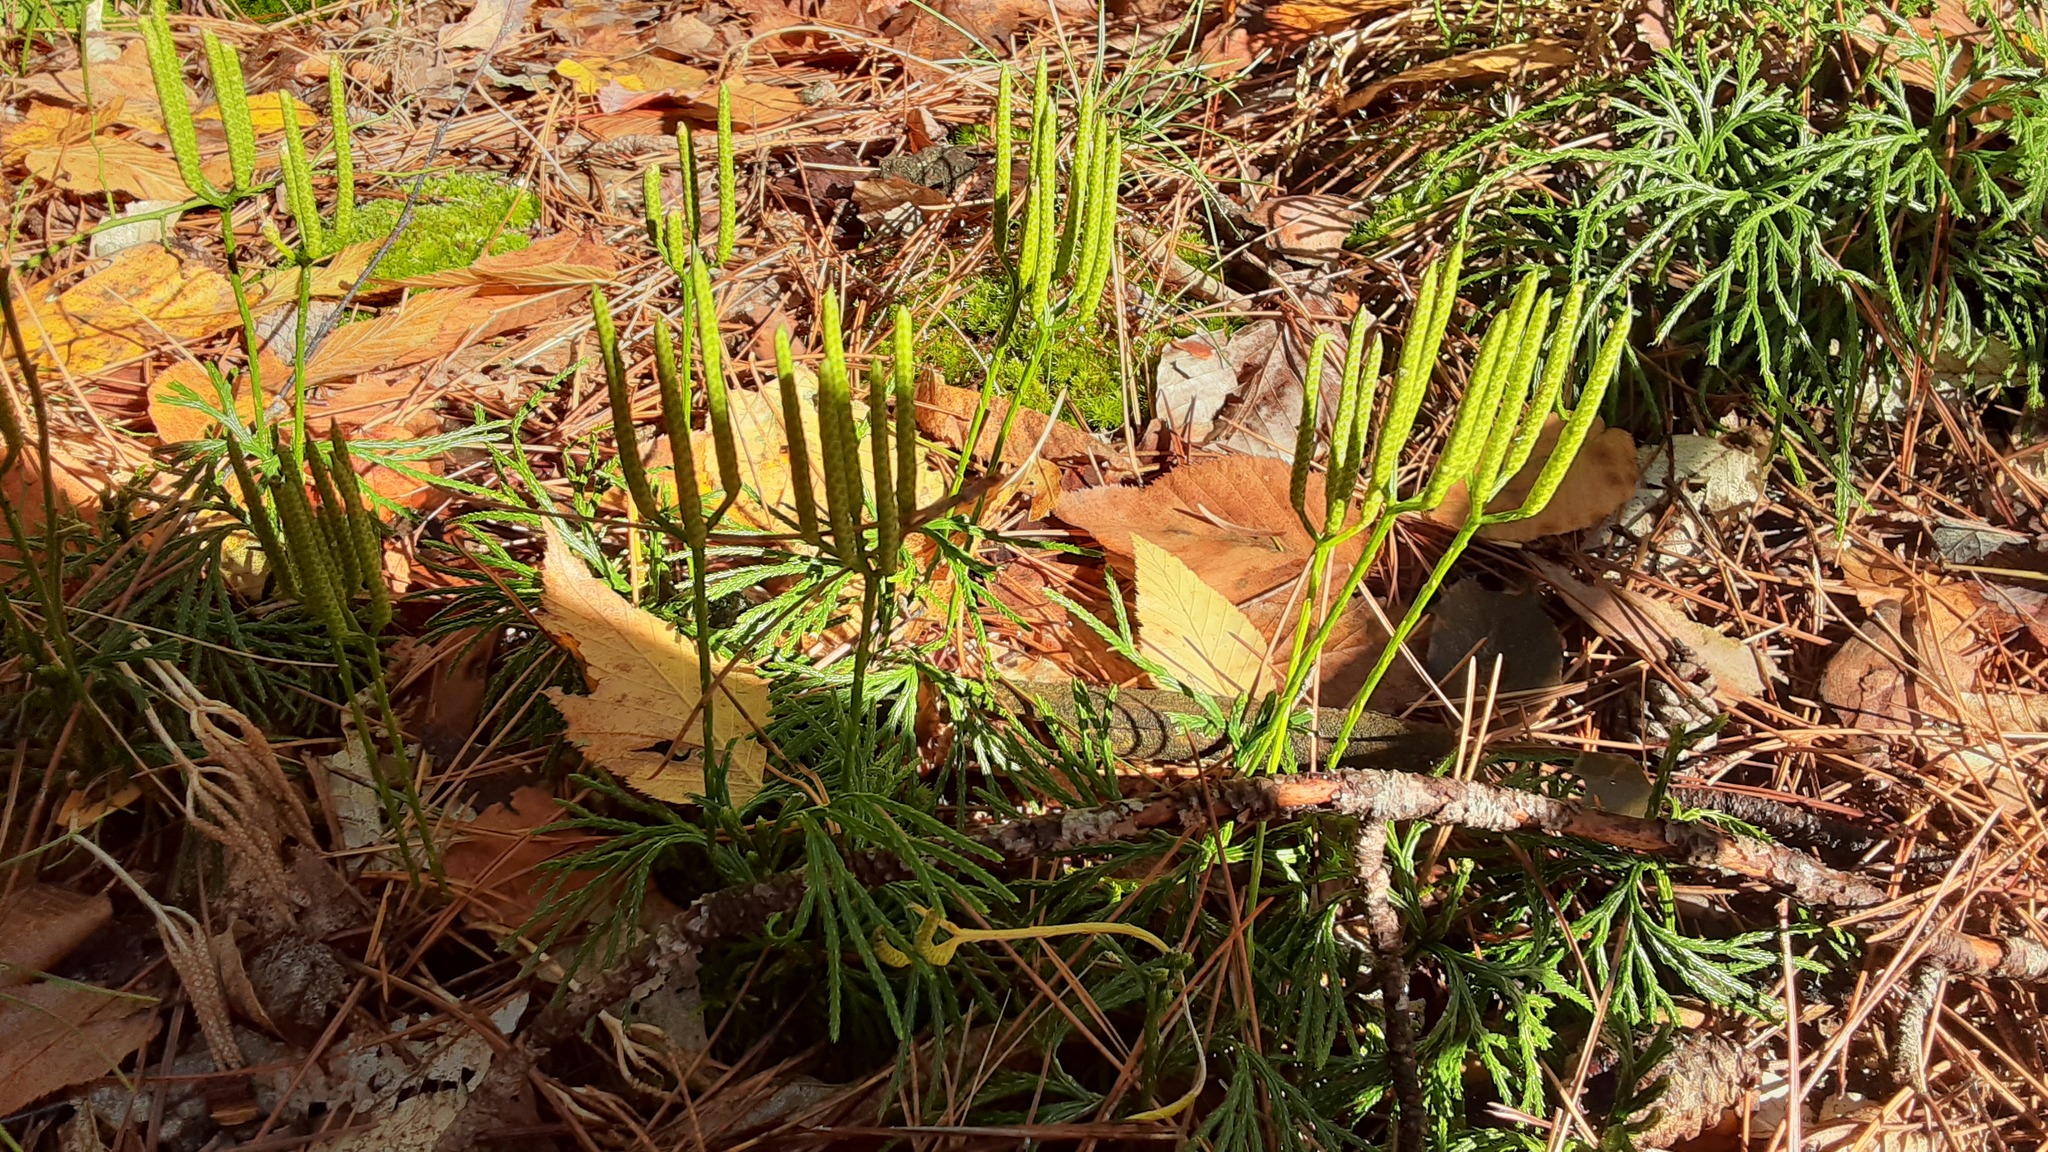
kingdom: Plantae
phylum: Tracheophyta
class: Lycopodiopsida
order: Lycopodiales
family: Lycopodiaceae
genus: Diphasiastrum
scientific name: Diphasiastrum digitatum
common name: Southern running-pine
